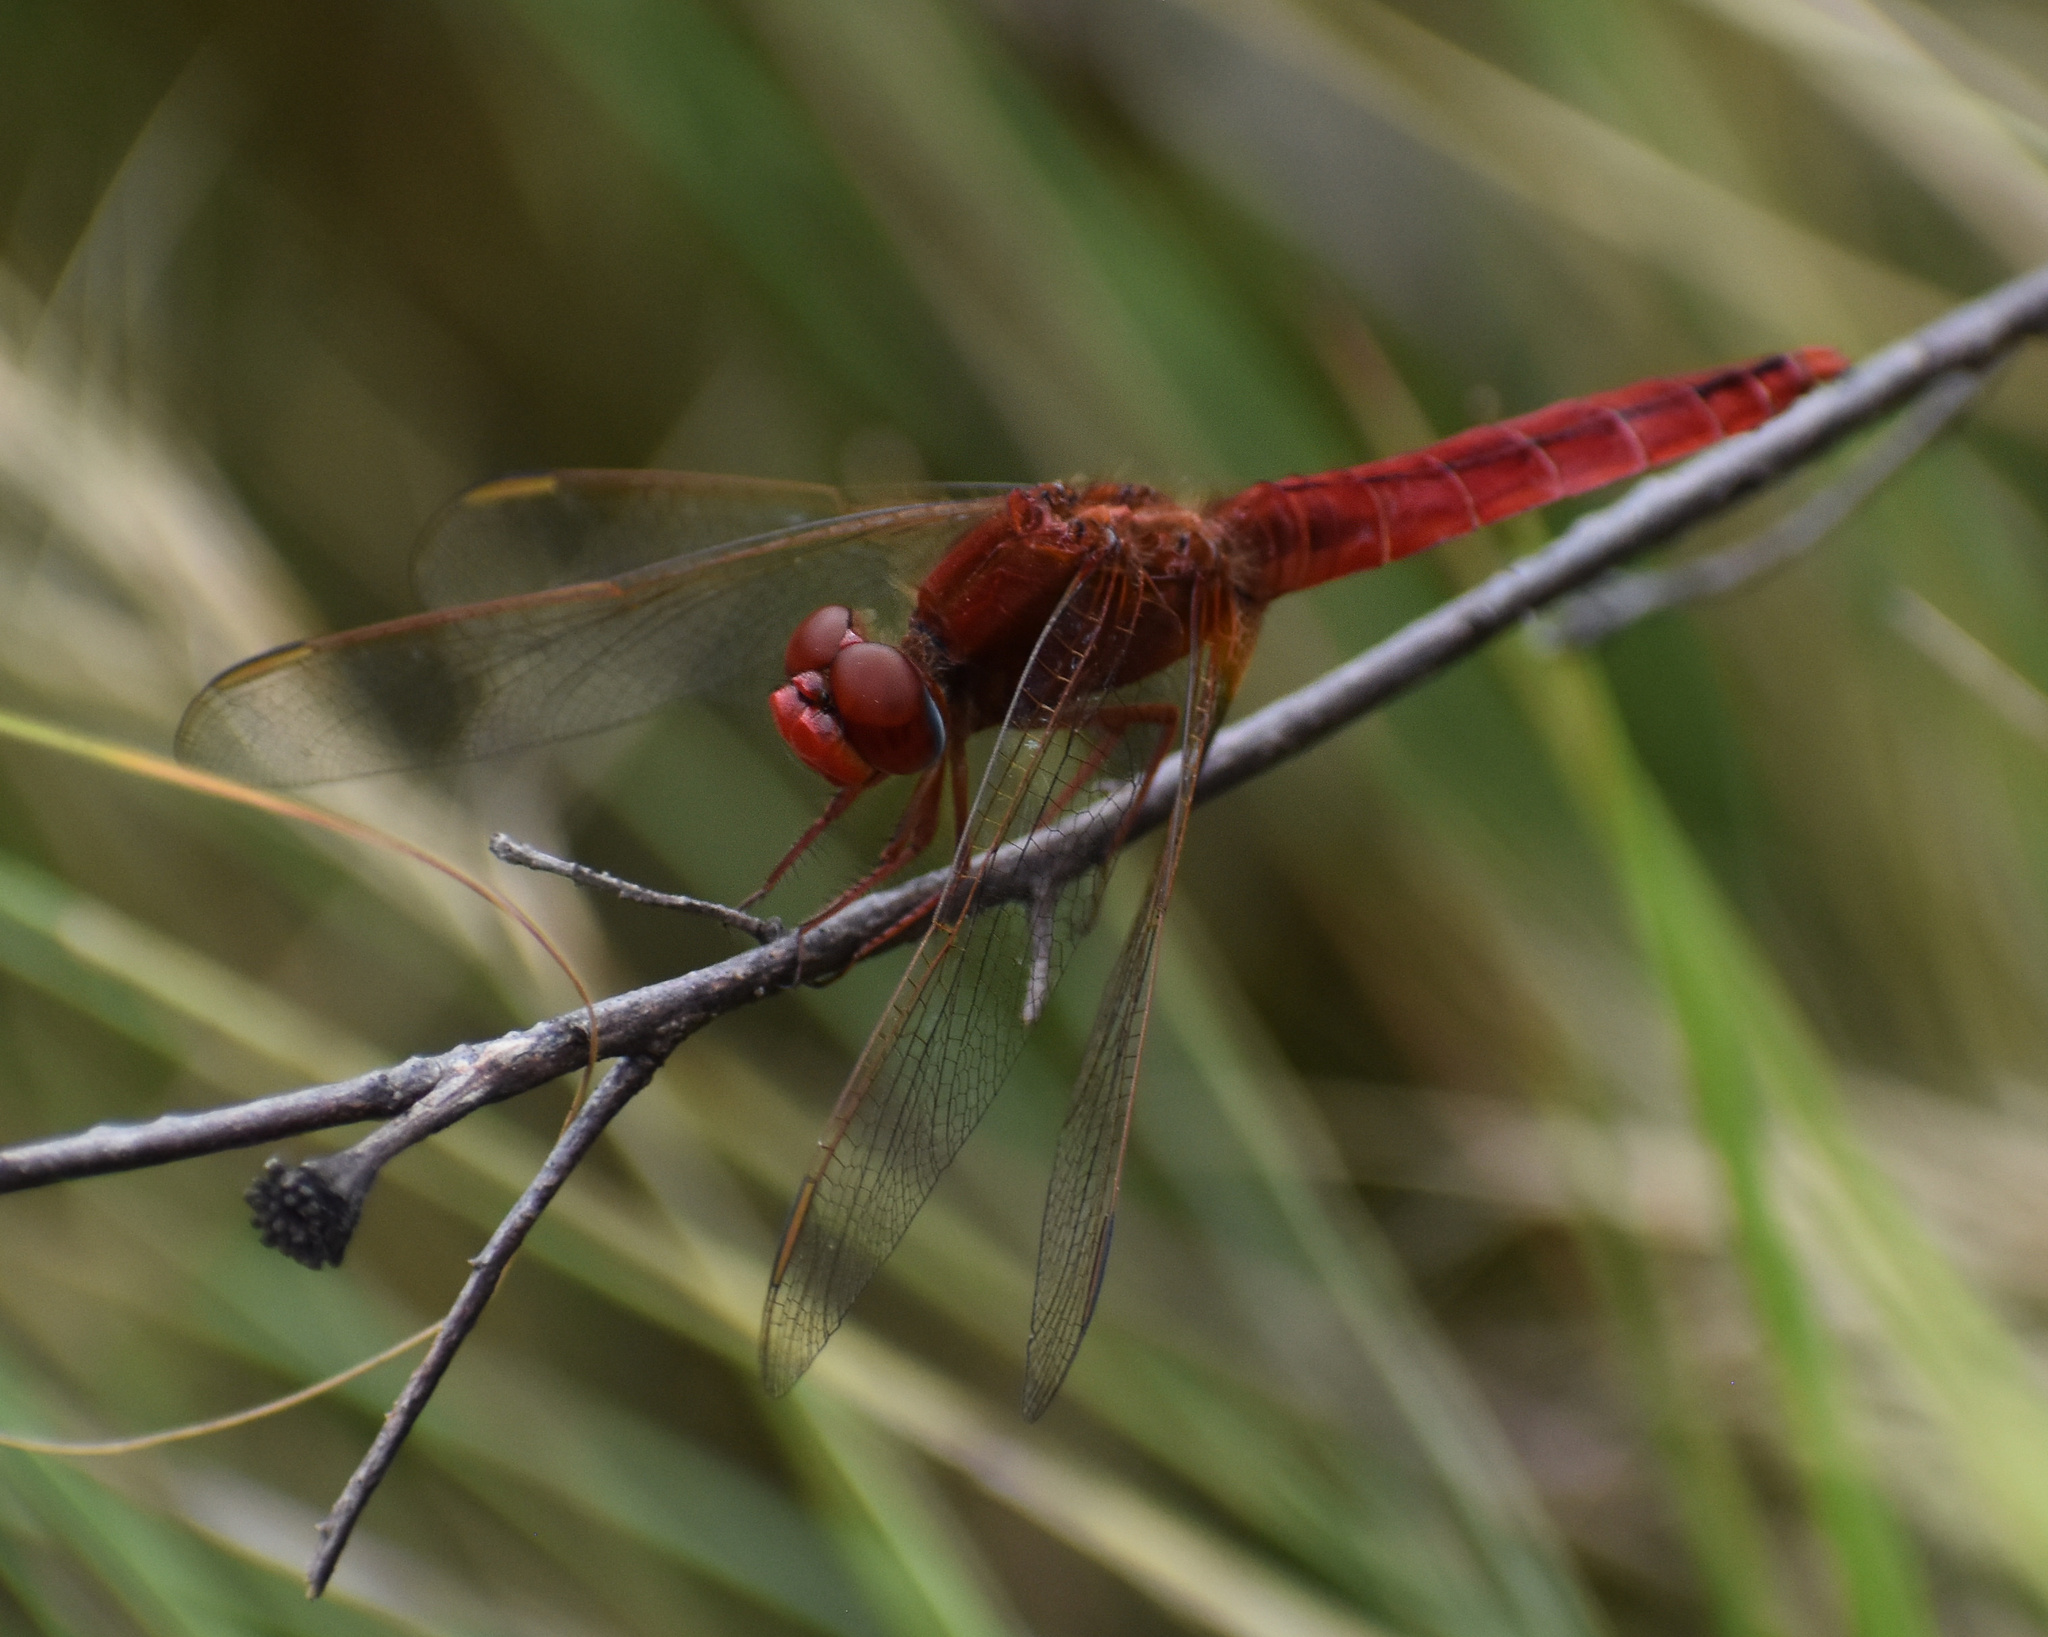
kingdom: Animalia
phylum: Arthropoda
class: Insecta
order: Odonata
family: Libellulidae
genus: Crocothemis
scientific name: Crocothemis erythraea
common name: Scarlet dragonfly
